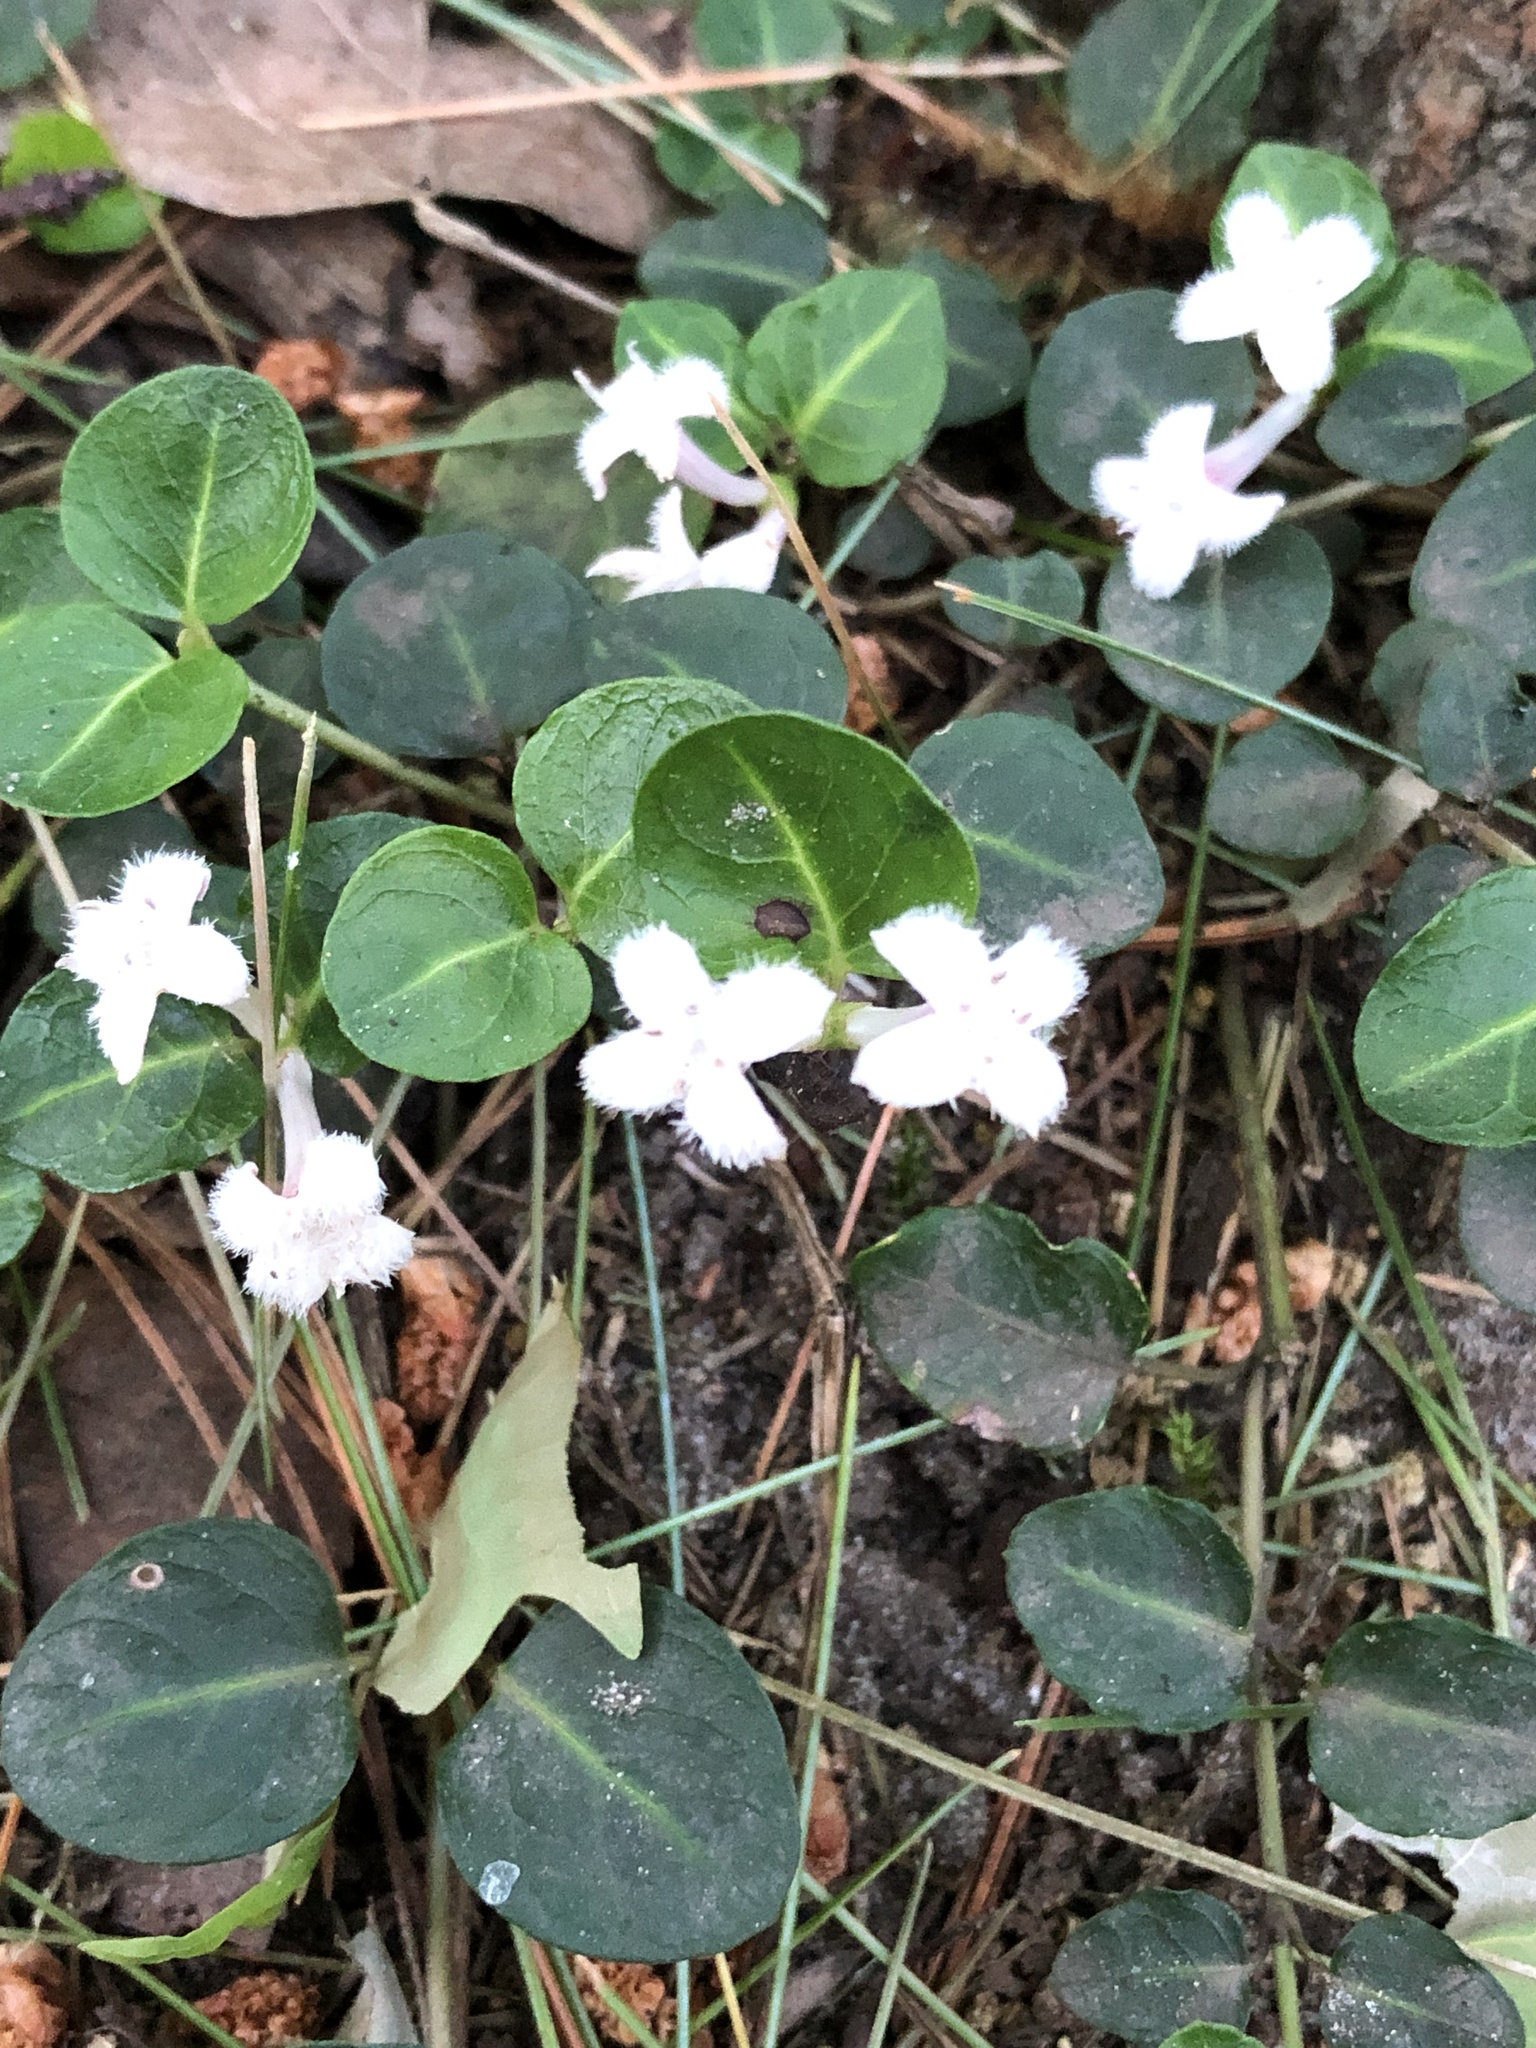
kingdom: Plantae
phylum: Tracheophyta
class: Magnoliopsida
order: Gentianales
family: Rubiaceae
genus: Mitchella
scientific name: Mitchella repens
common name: Partridge-berry
